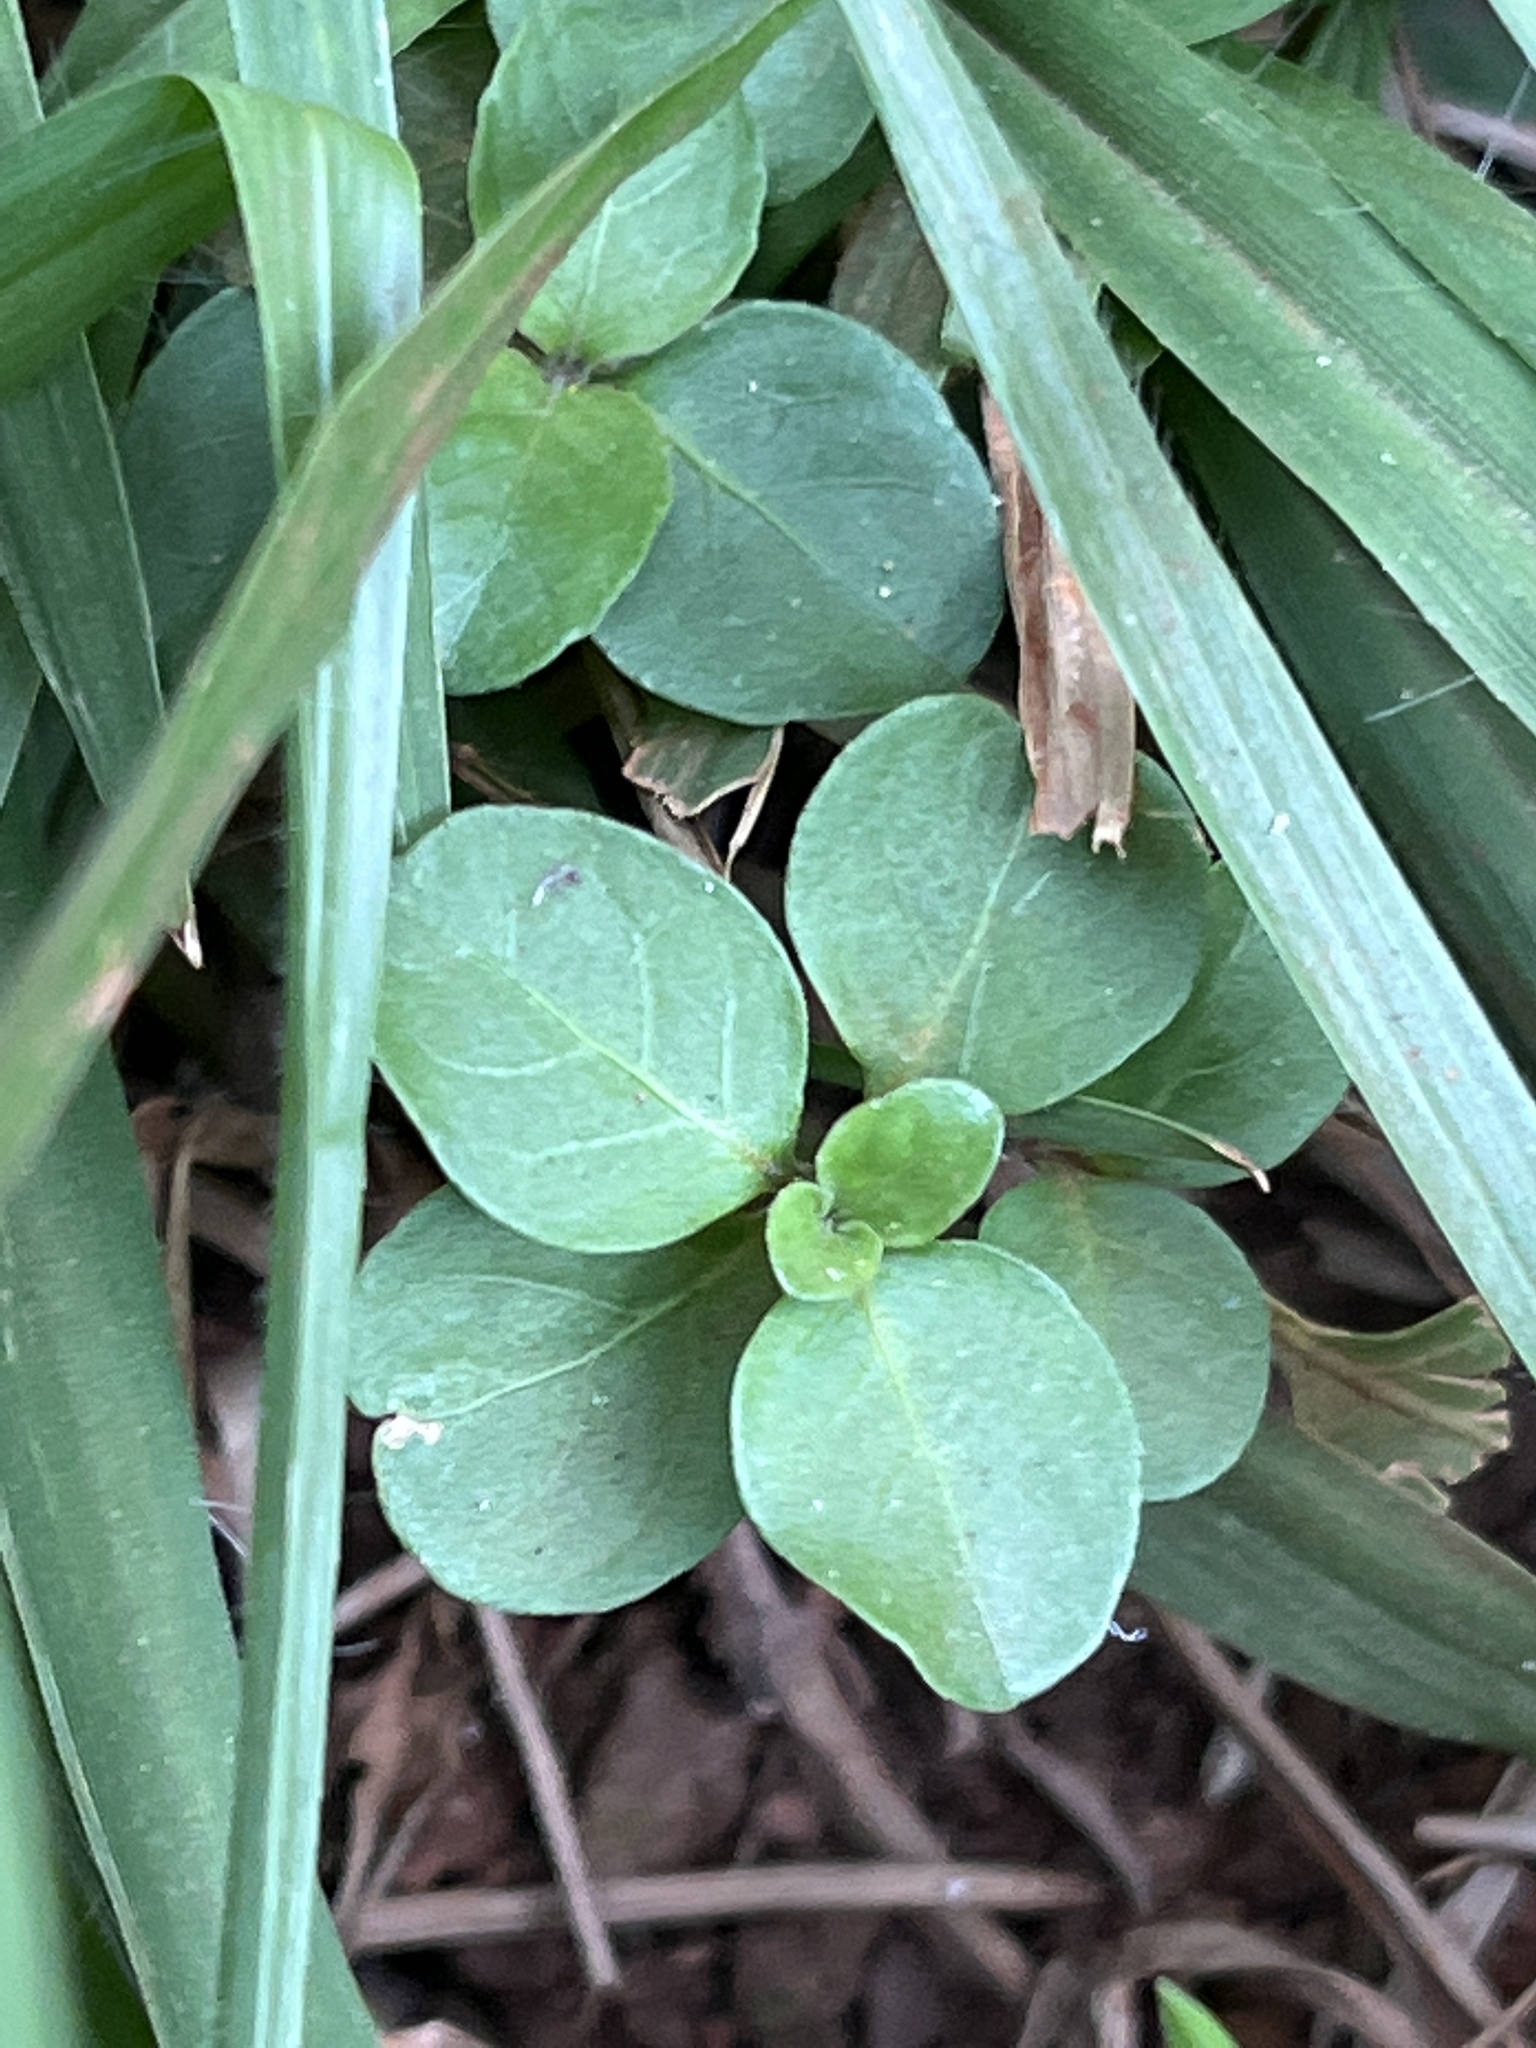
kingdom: Plantae
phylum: Tracheophyta
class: Magnoliopsida
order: Caryophyllales
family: Amaranthaceae
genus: Alternanthera
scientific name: Alternanthera pungens
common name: Khakiweed
